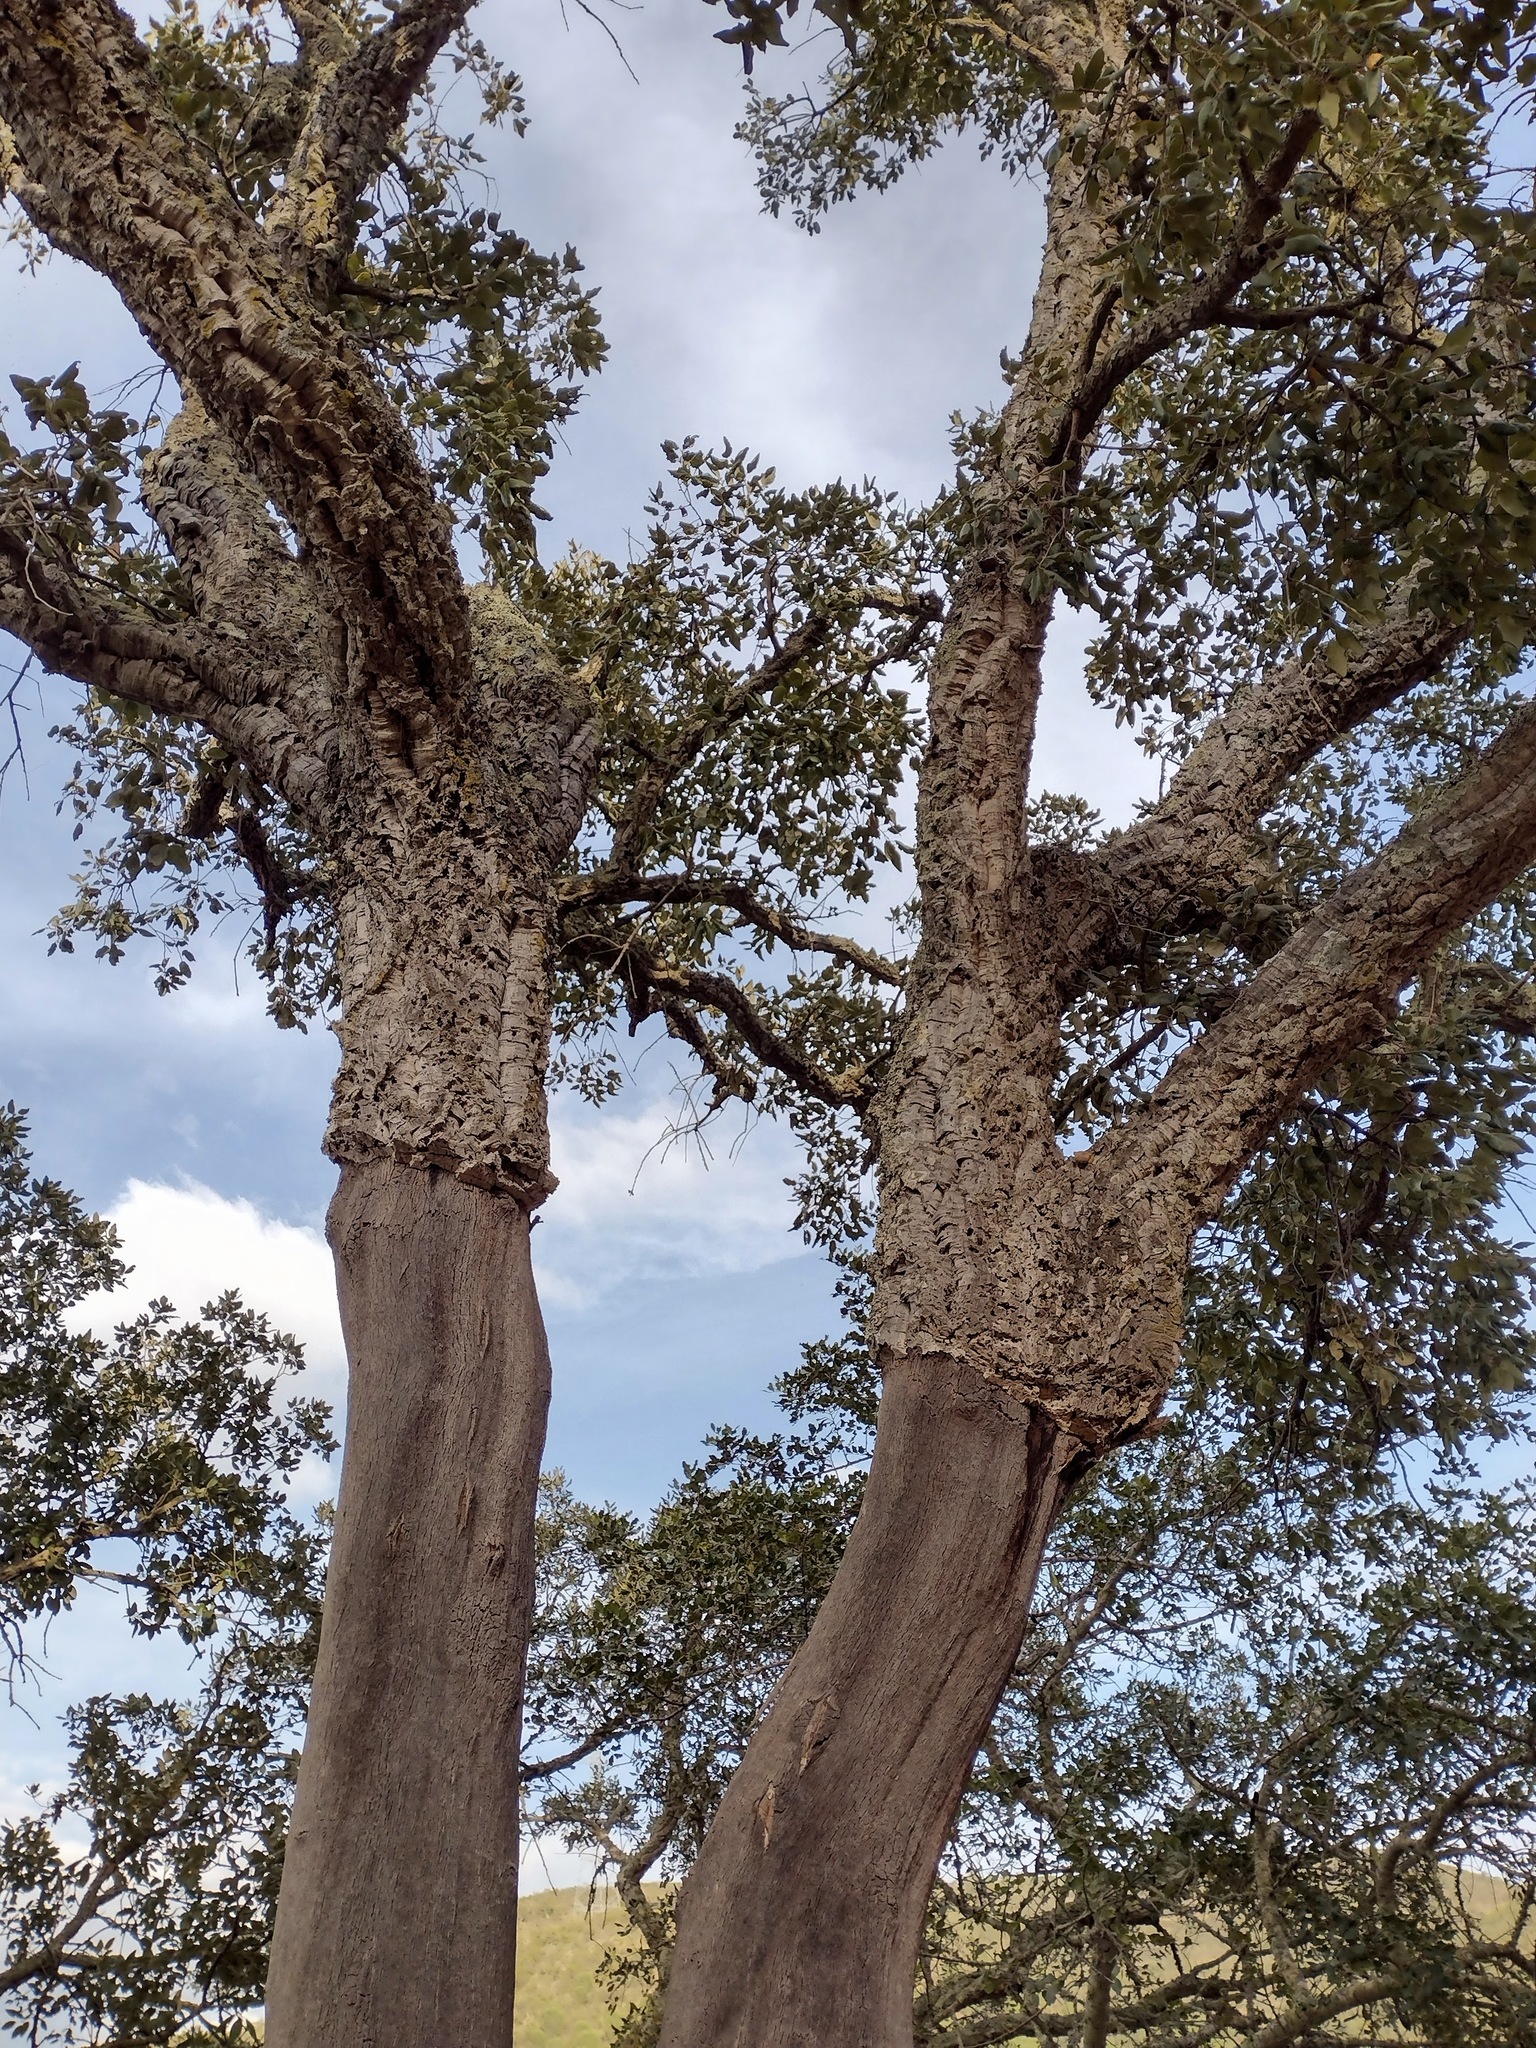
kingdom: Plantae
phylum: Tracheophyta
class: Magnoliopsida
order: Fagales
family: Fagaceae
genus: Quercus
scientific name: Quercus suber
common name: Cork oak
